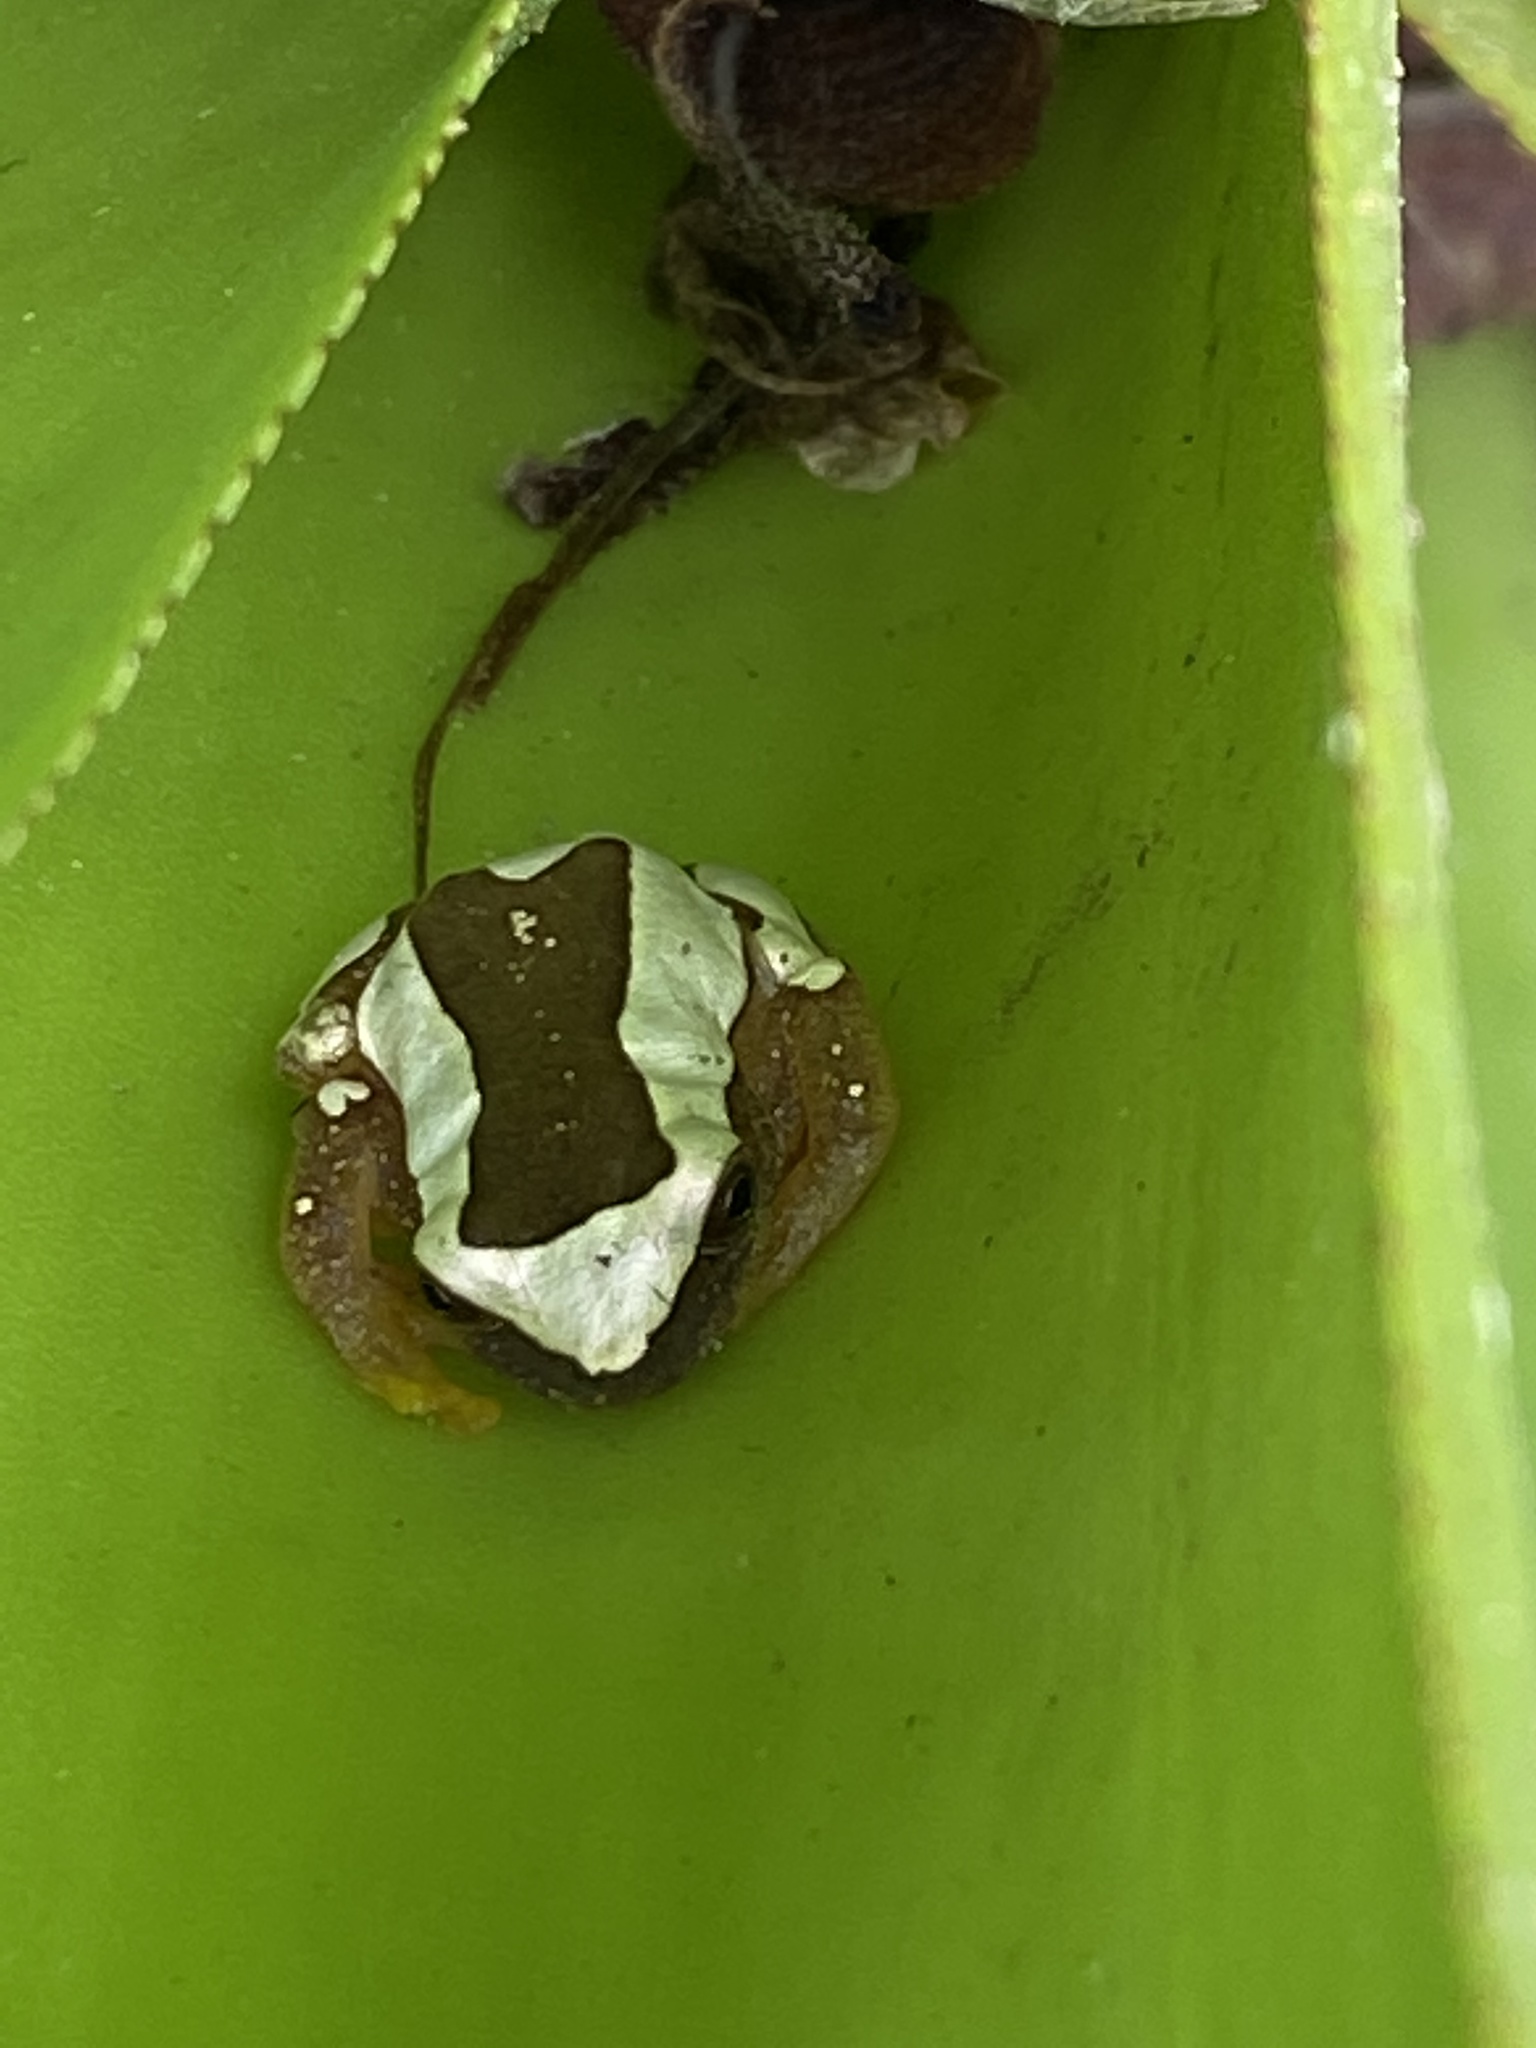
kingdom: Animalia
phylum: Chordata
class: Amphibia
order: Anura
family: Hylidae
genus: Dendropsophus
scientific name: Dendropsophus elegans
